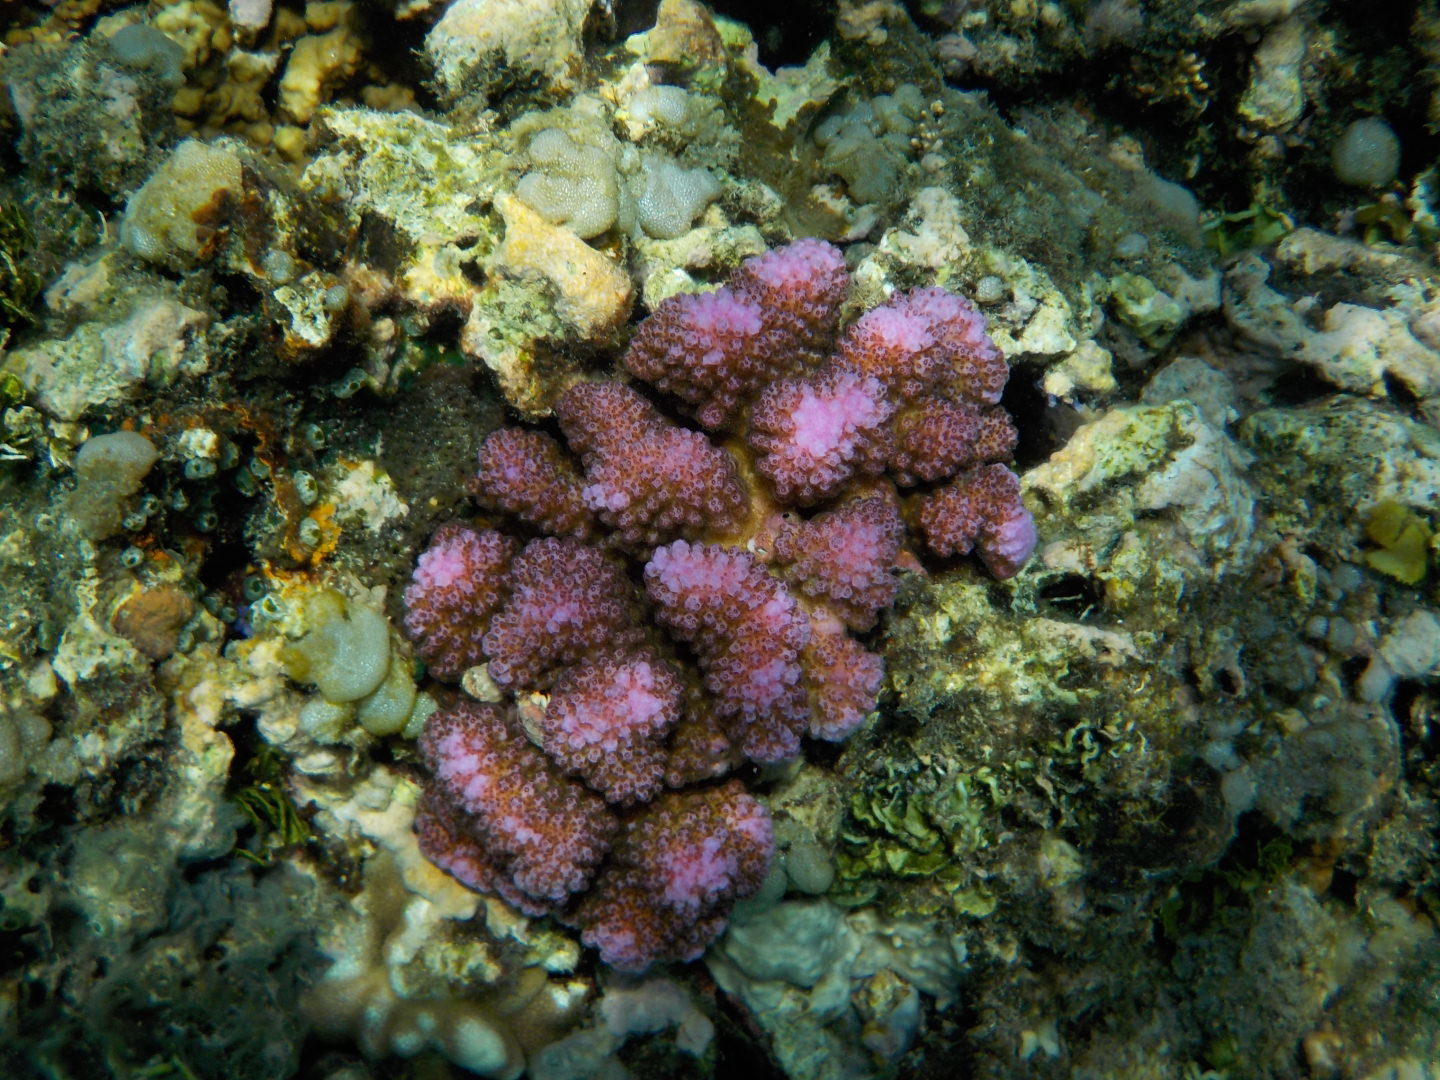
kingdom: Animalia
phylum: Cnidaria
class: Anthozoa
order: Scleractinia
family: Pocilloporidae
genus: Pocillopora
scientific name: Pocillopora verrucosa
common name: Cauliflower coral
